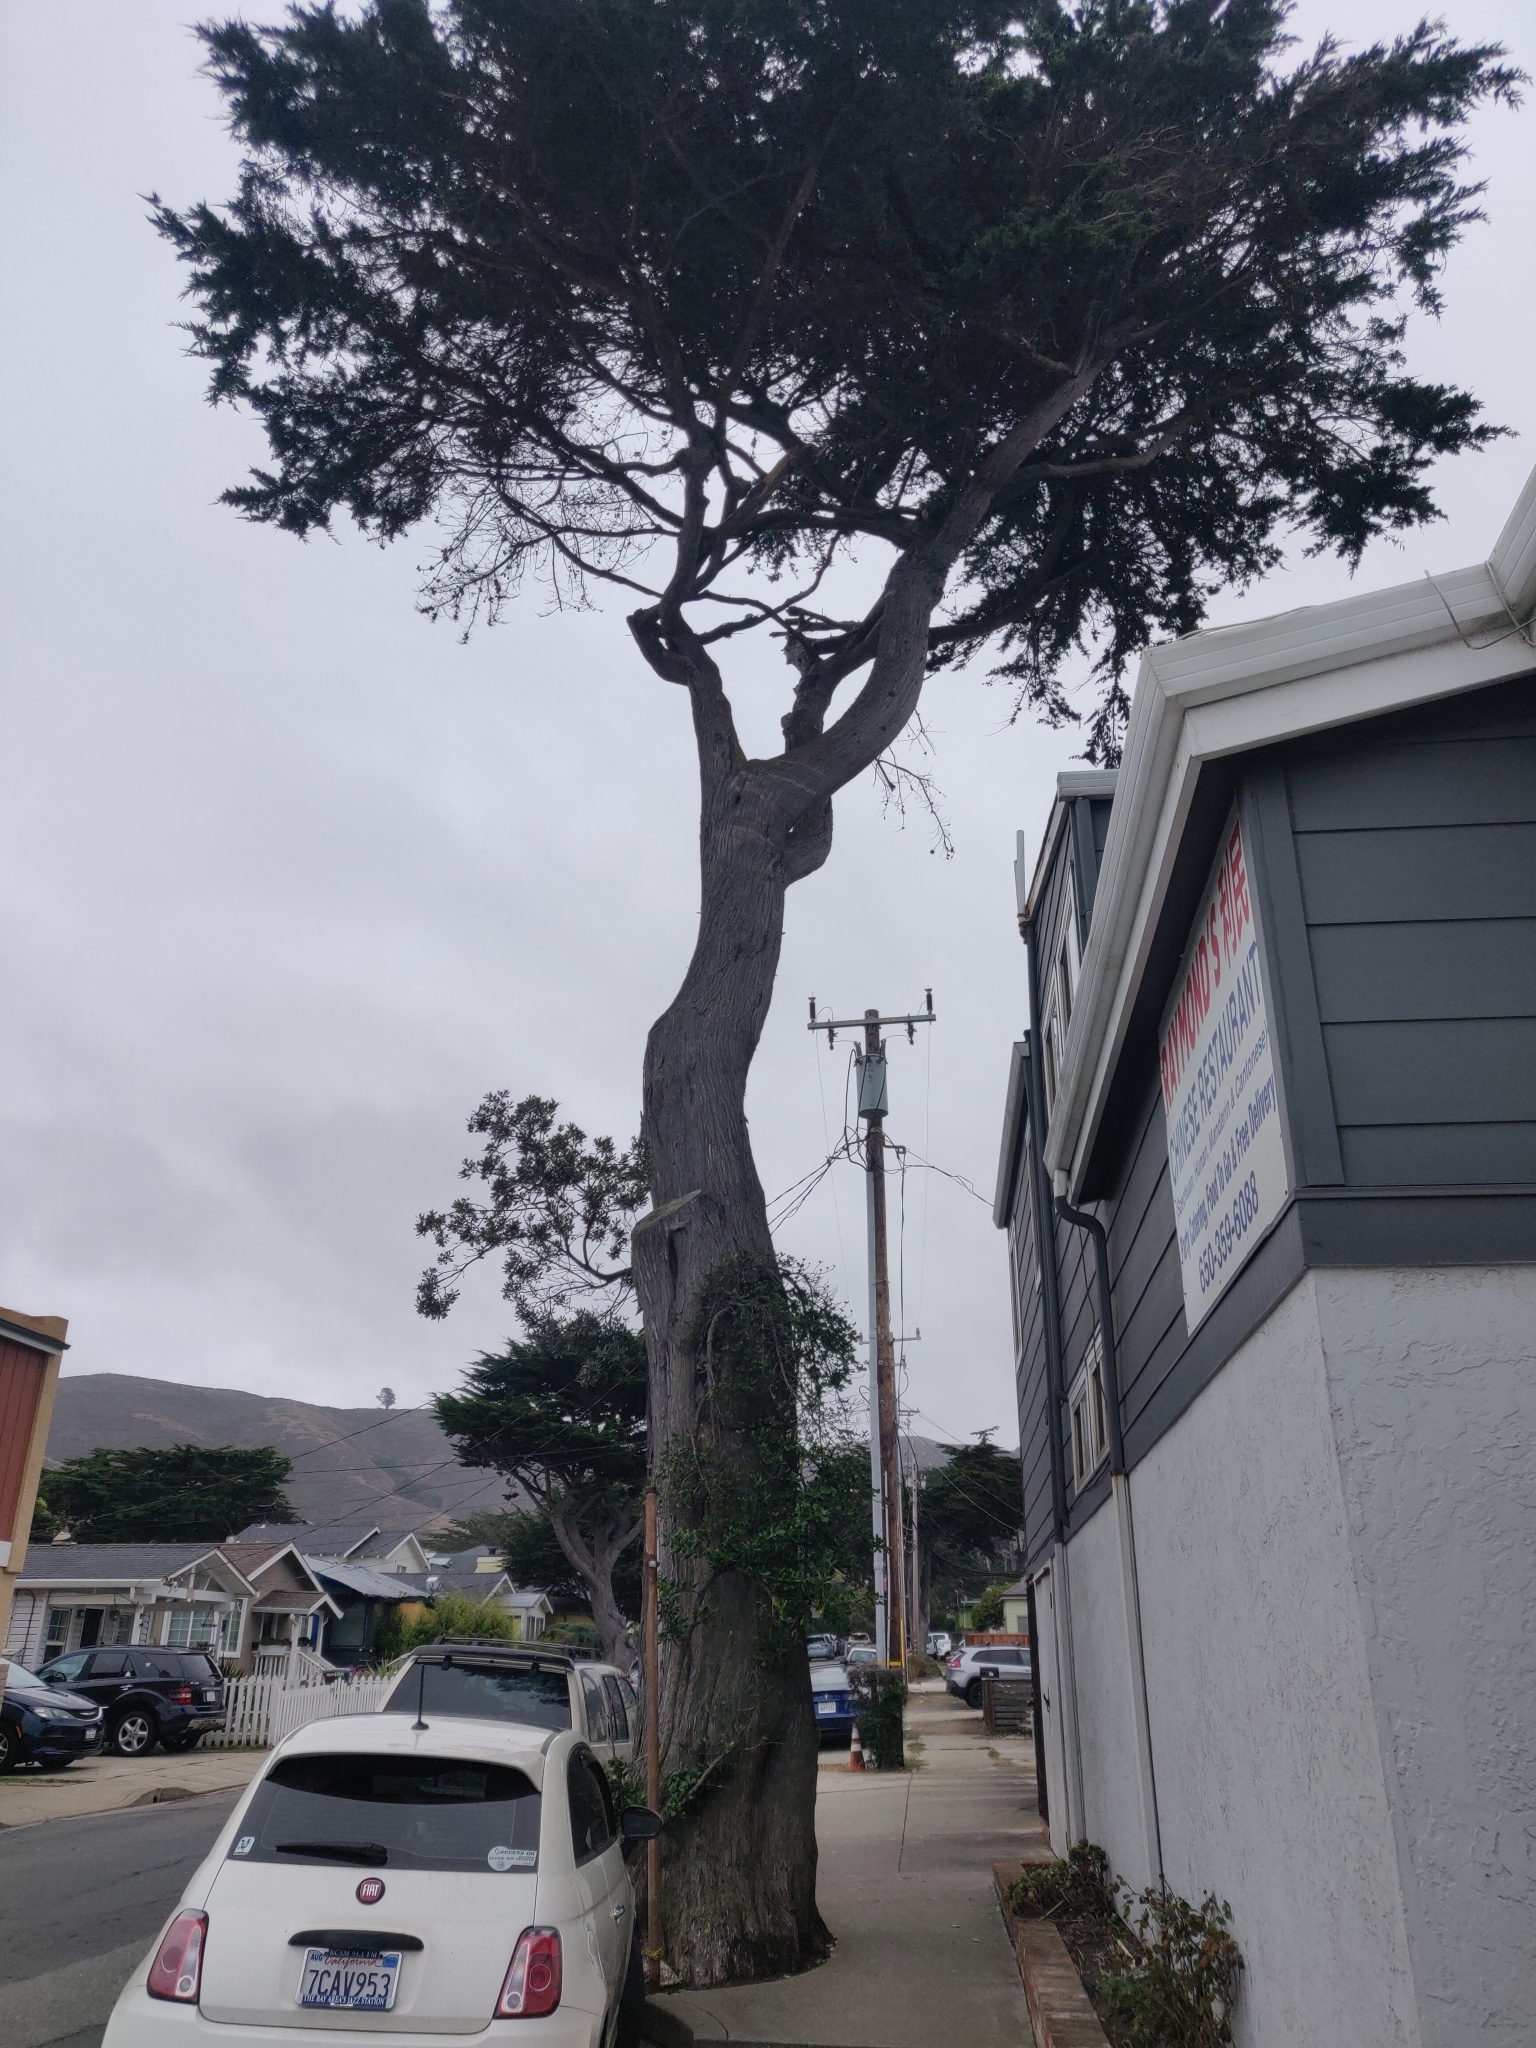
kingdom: Plantae
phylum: Tracheophyta
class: Magnoliopsida
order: Gentianales
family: Rubiaceae
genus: Coprosma
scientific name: Coprosma repens
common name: Tree bedstraw
